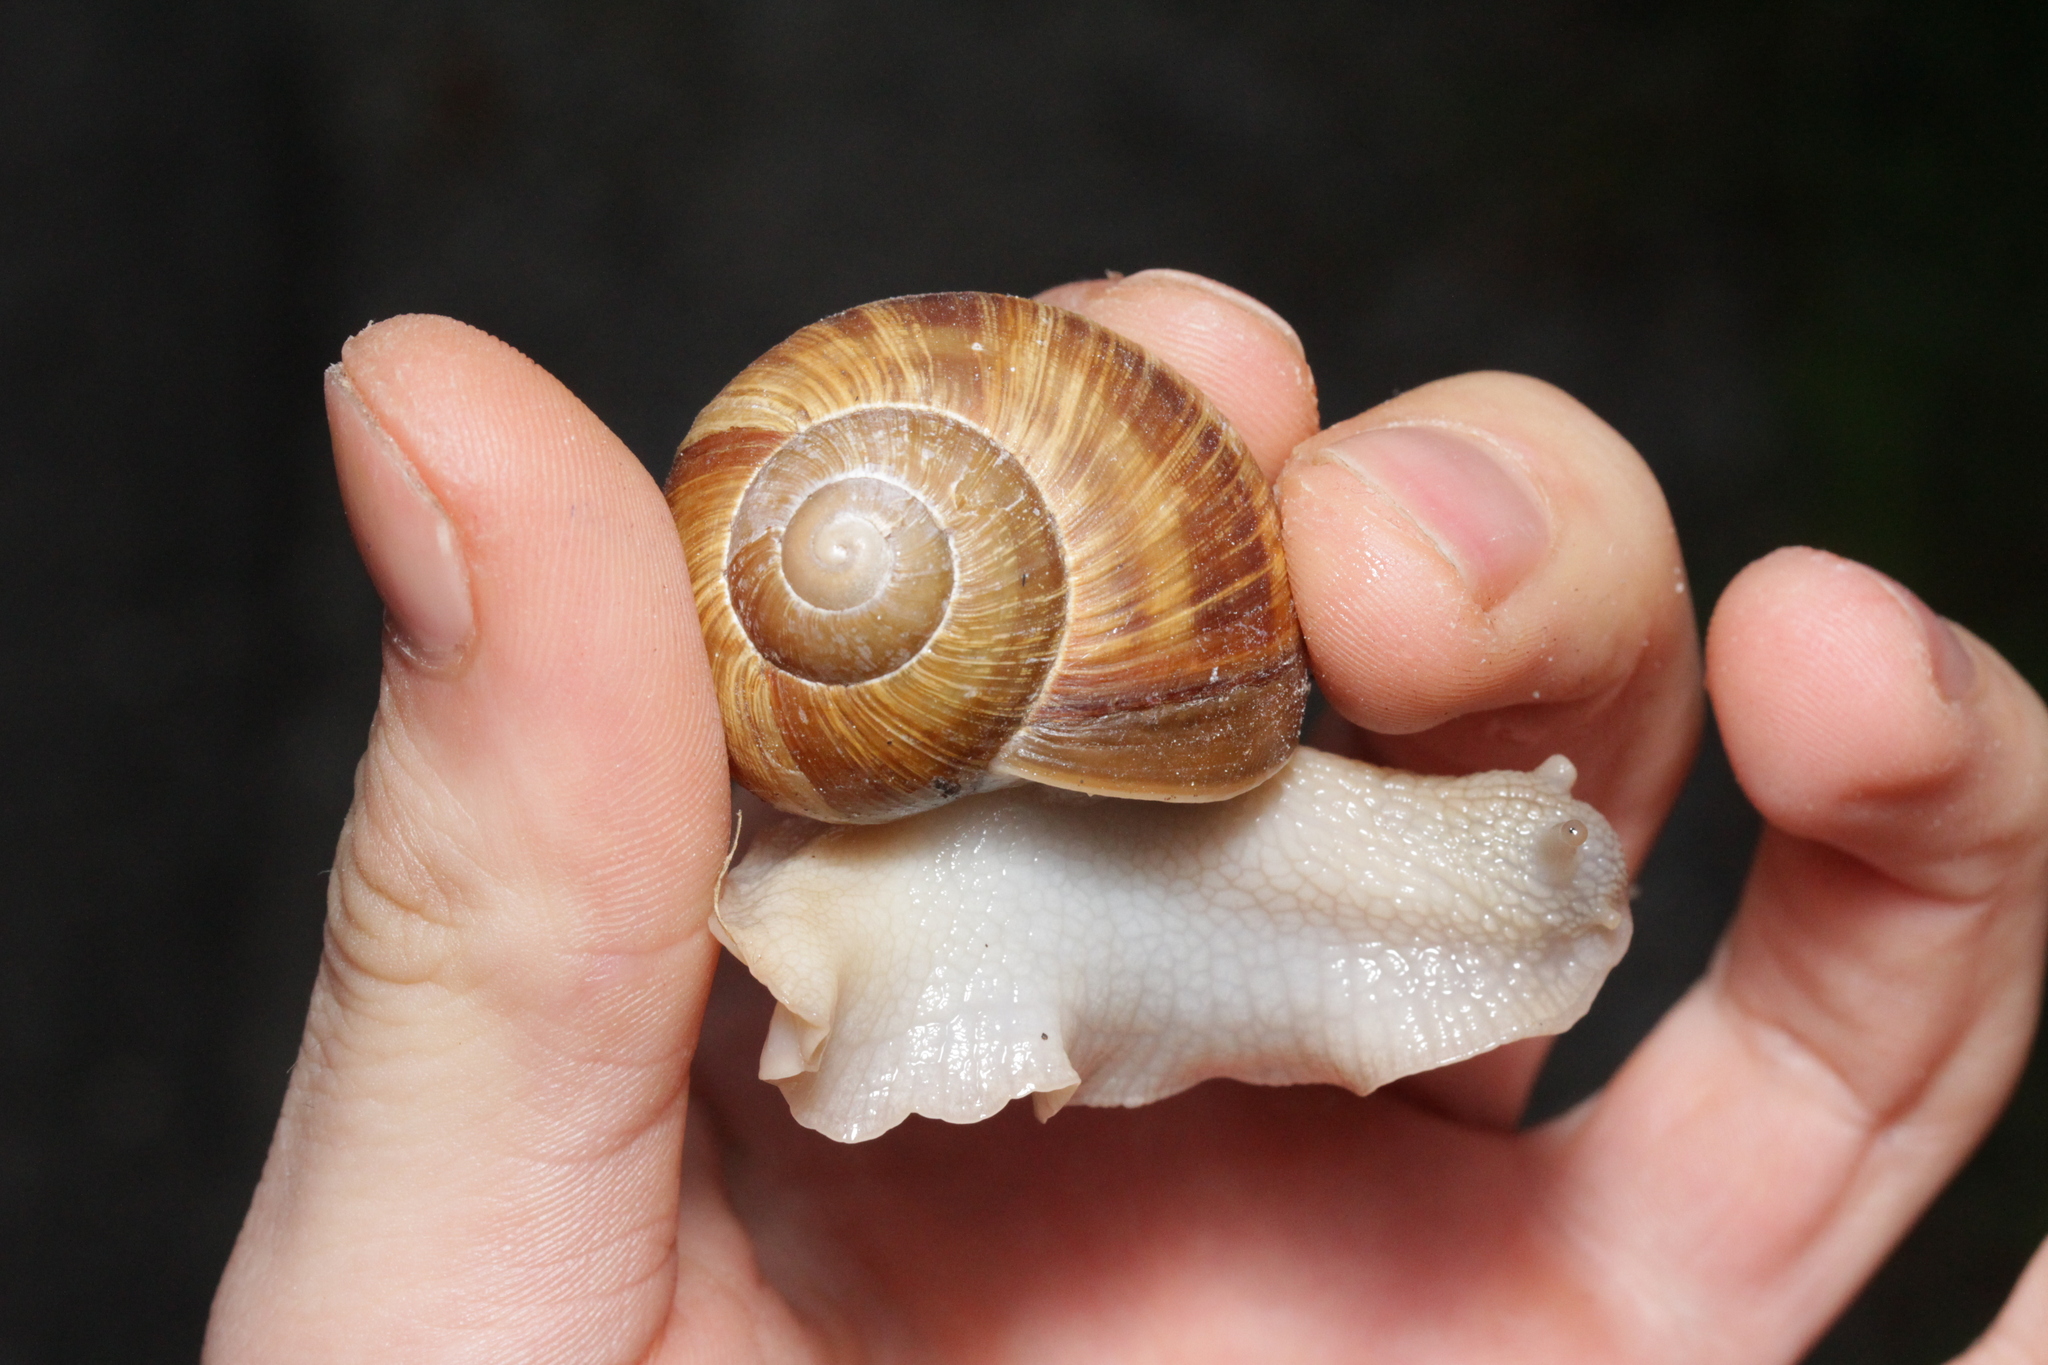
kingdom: Animalia
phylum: Mollusca
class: Gastropoda
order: Stylommatophora
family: Helicidae
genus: Helix
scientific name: Helix pomatia
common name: Roman snail
